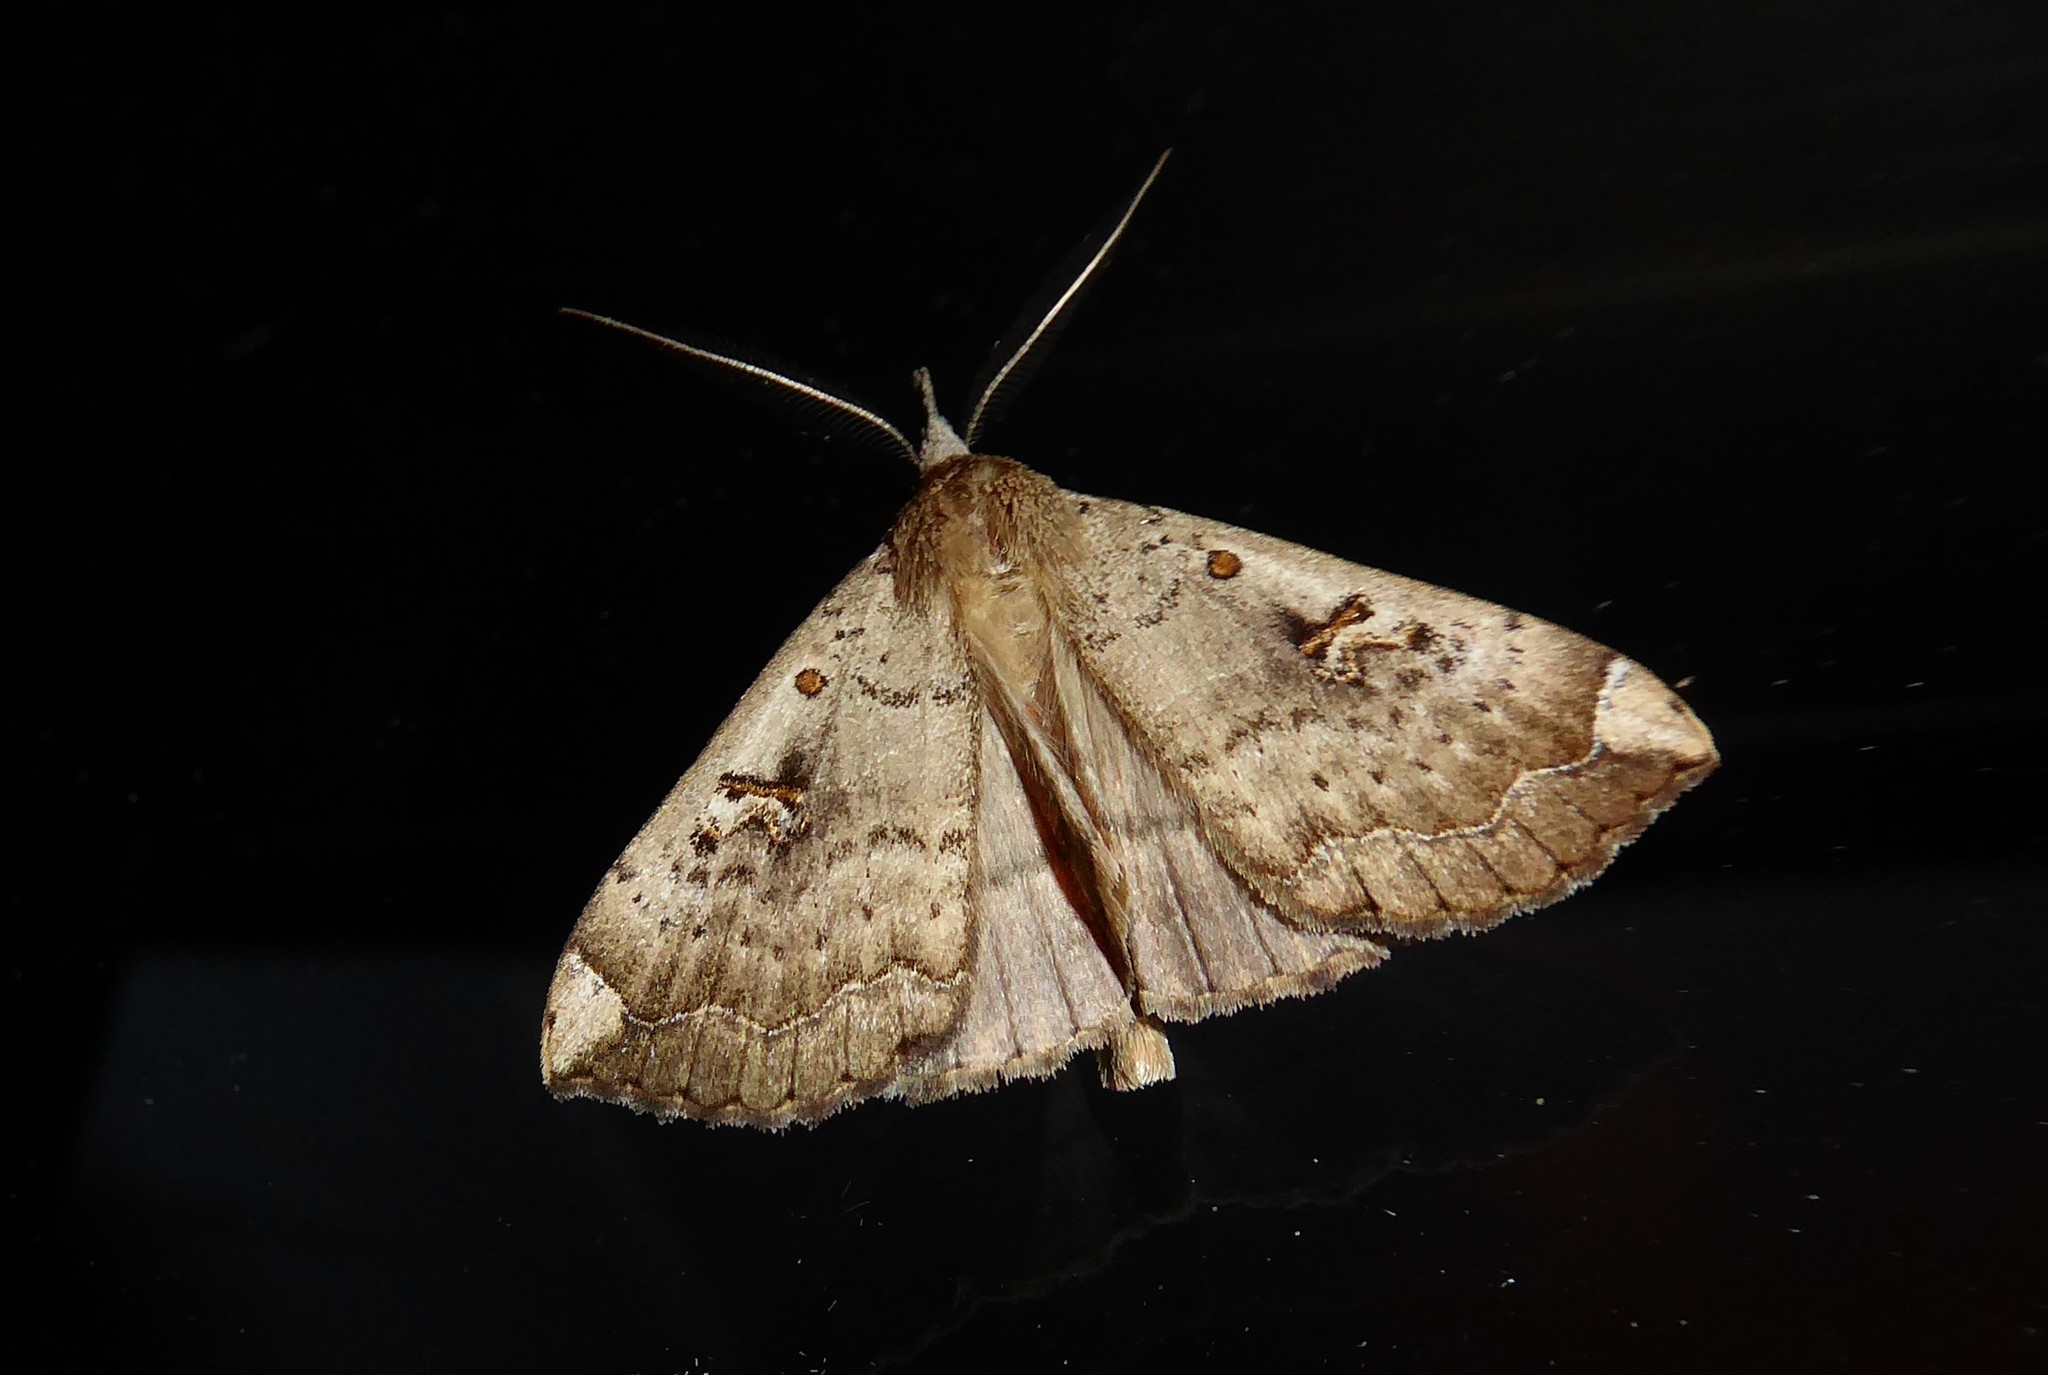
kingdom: Animalia
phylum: Arthropoda
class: Insecta
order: Lepidoptera
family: Erebidae
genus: Rhapsa
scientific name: Rhapsa scotosialis
